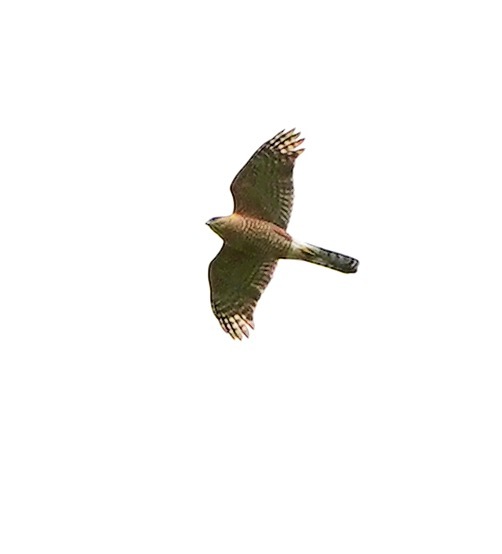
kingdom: Animalia
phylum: Chordata
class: Aves
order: Accipitriformes
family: Accipitridae
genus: Accipiter
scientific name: Accipiter cooperii
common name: Cooper's hawk
